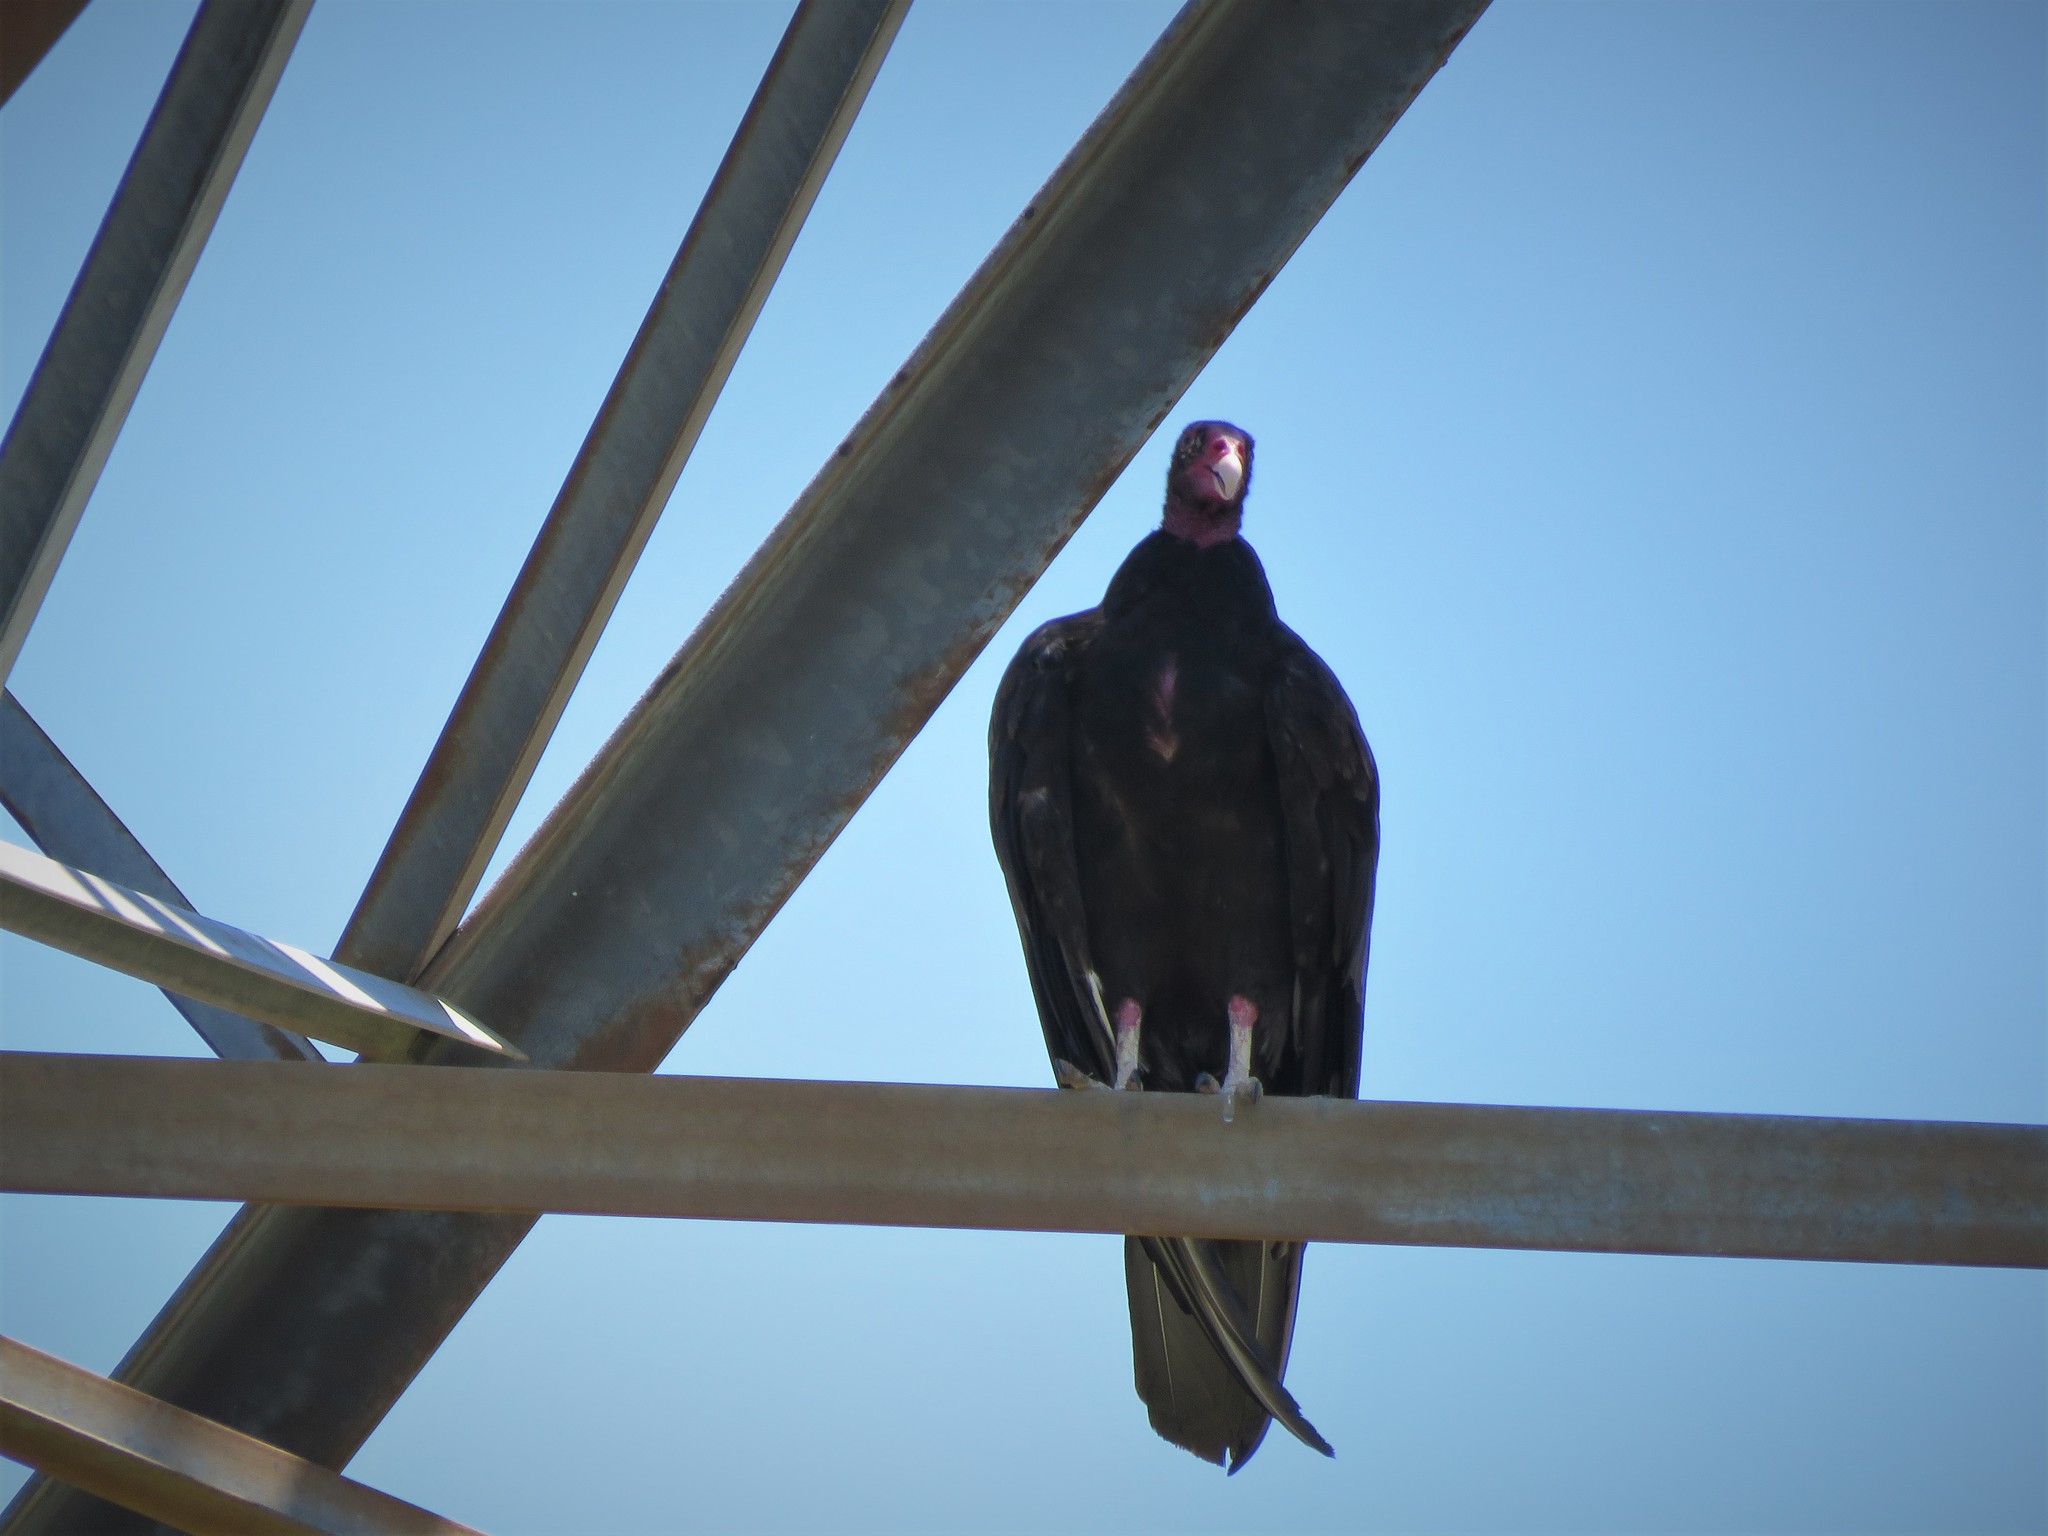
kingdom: Animalia
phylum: Chordata
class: Aves
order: Accipitriformes
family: Cathartidae
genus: Cathartes
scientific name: Cathartes aura
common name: Turkey vulture
